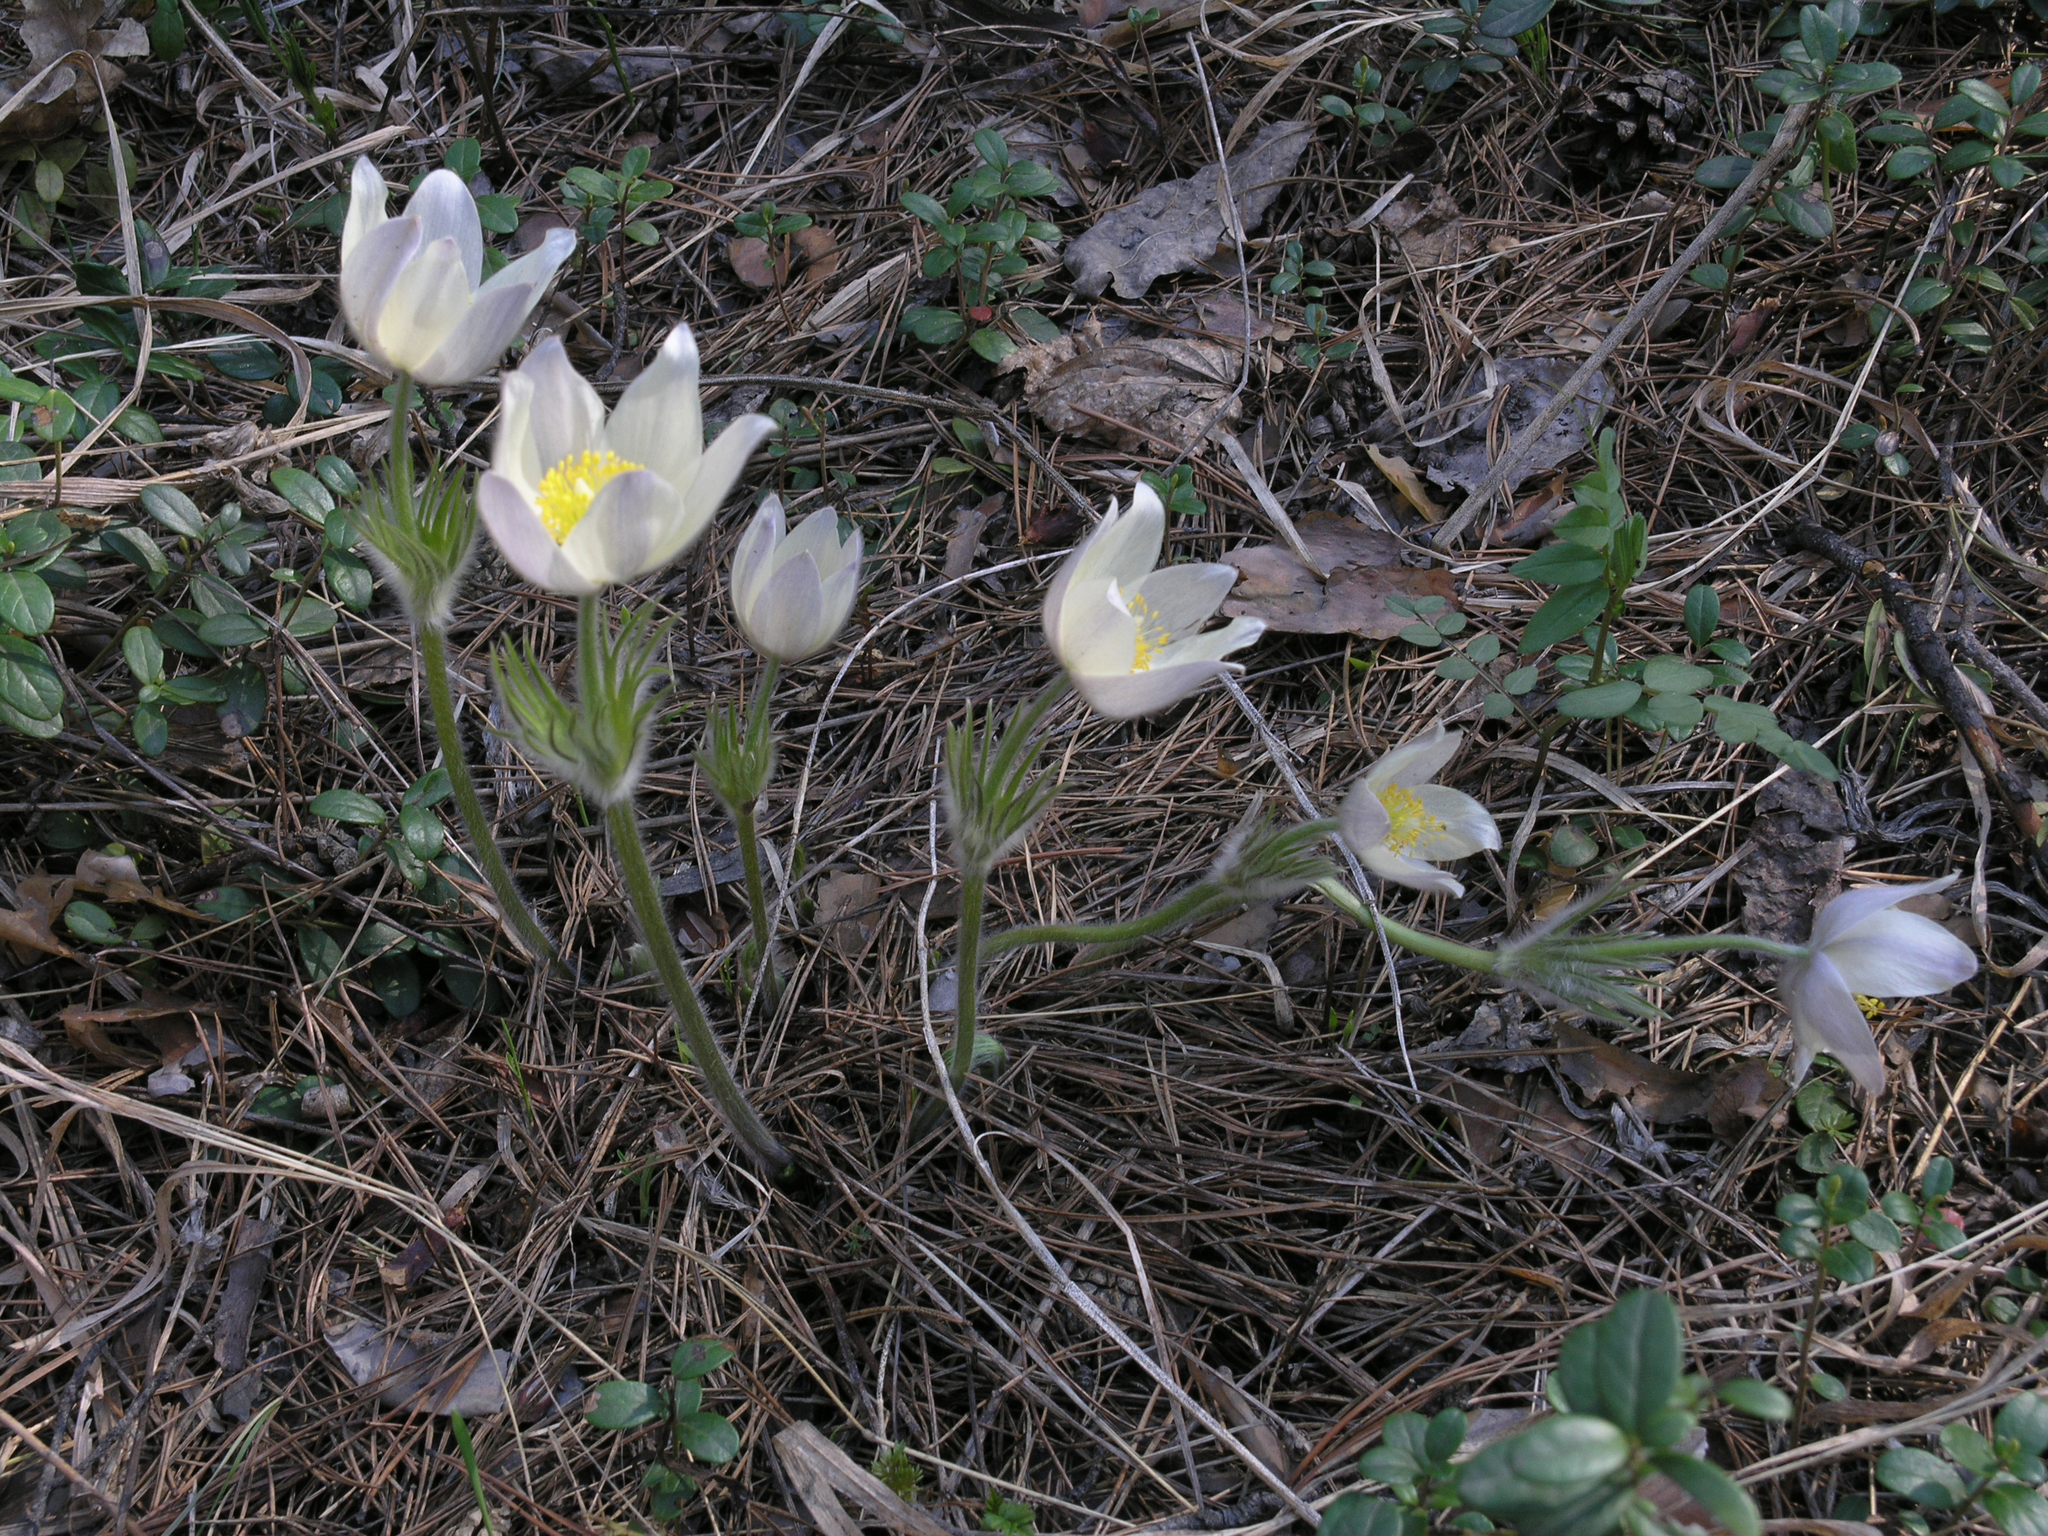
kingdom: Plantae
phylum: Tracheophyta
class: Magnoliopsida
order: Ranunculales
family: Ranunculaceae
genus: Pulsatilla
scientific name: Pulsatilla patens
